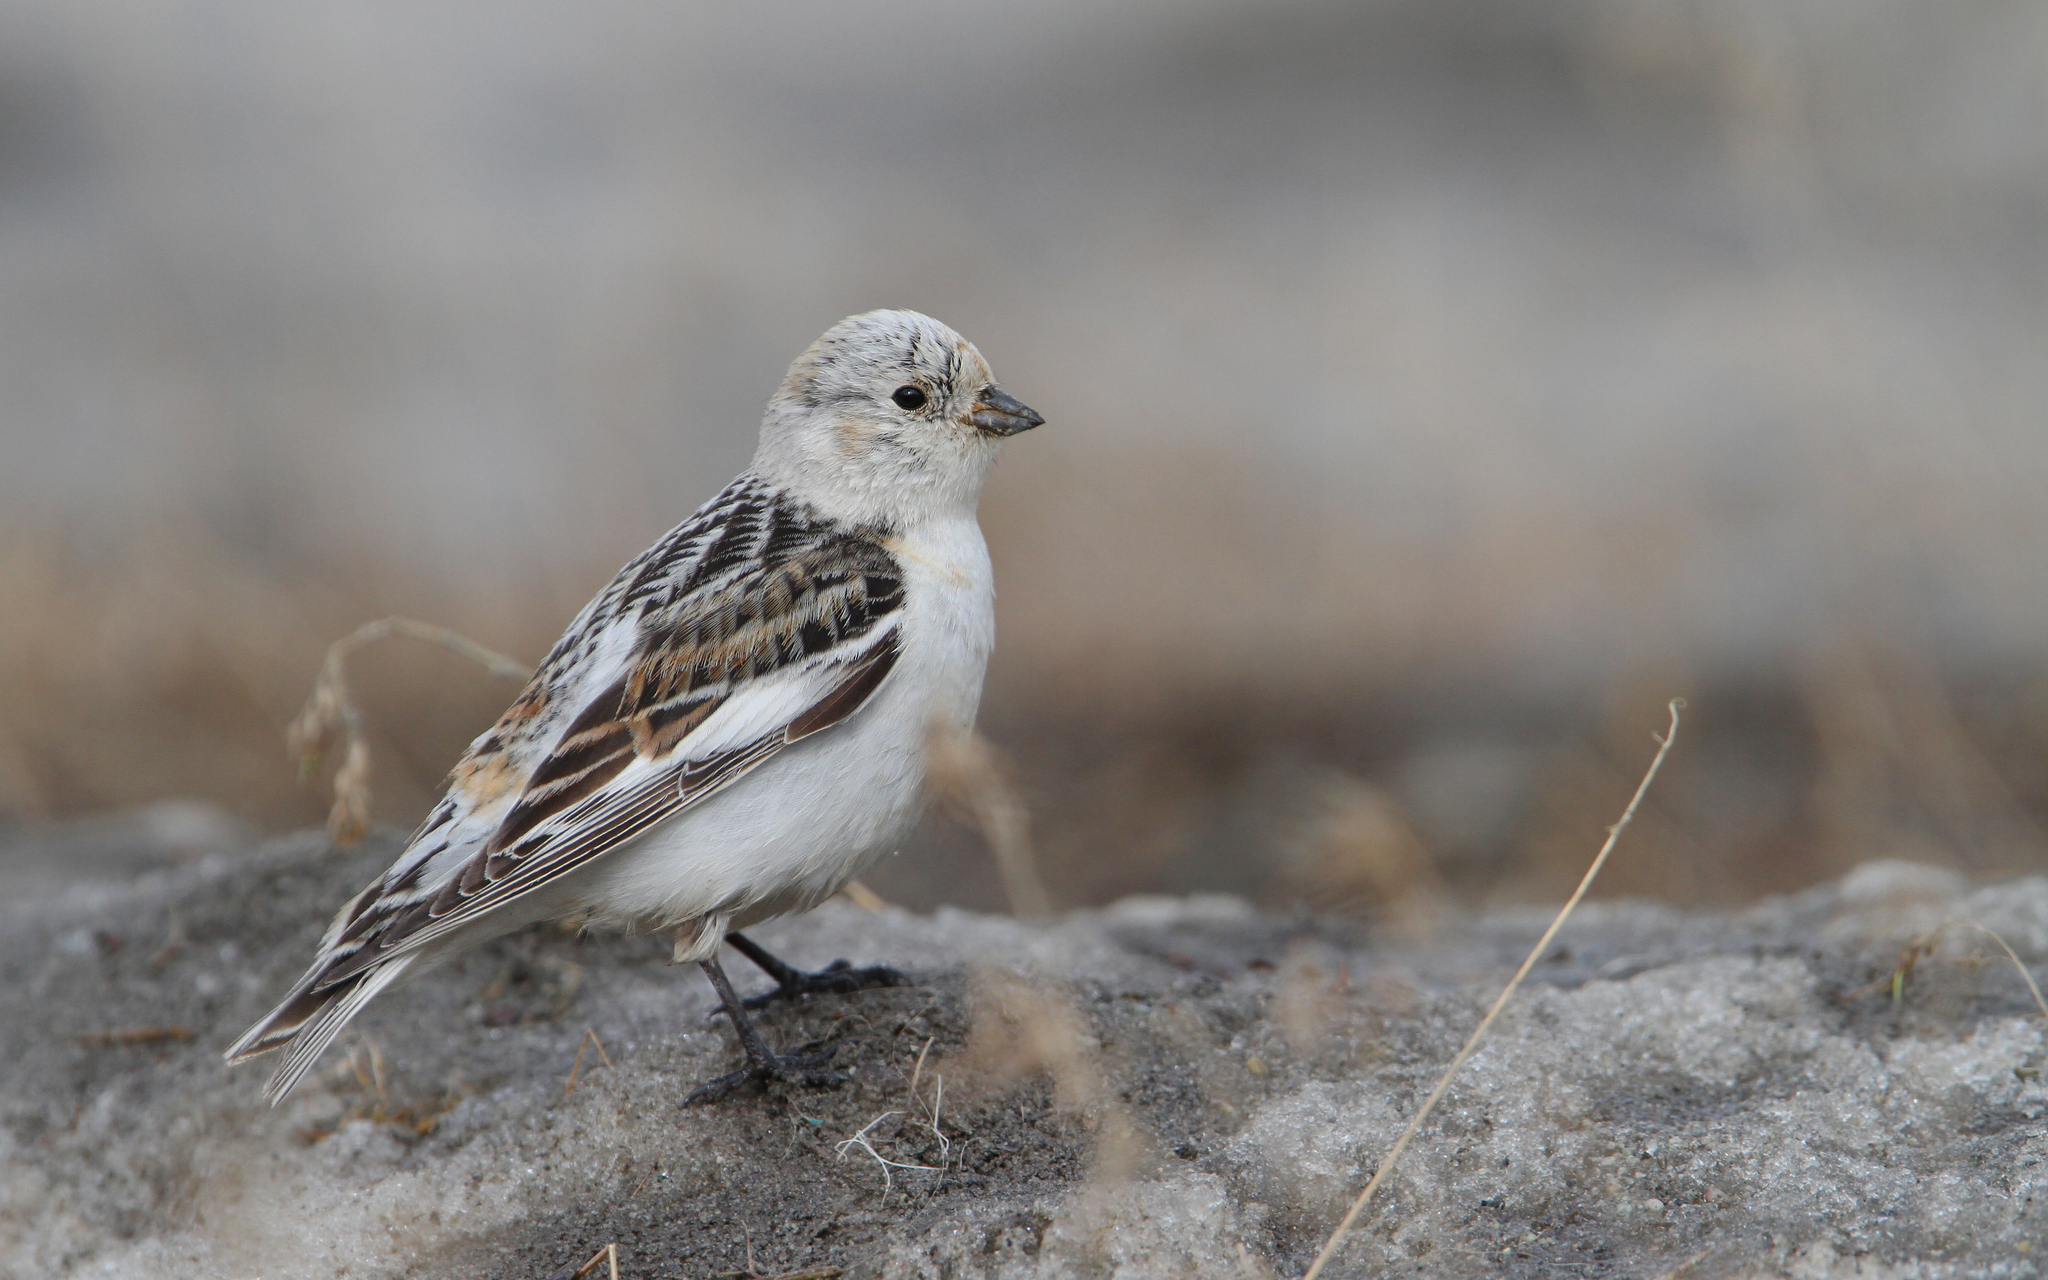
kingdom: Animalia
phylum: Chordata
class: Aves
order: Passeriformes
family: Calcariidae
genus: Plectrophenax
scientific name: Plectrophenax nivalis
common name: Snow bunting
